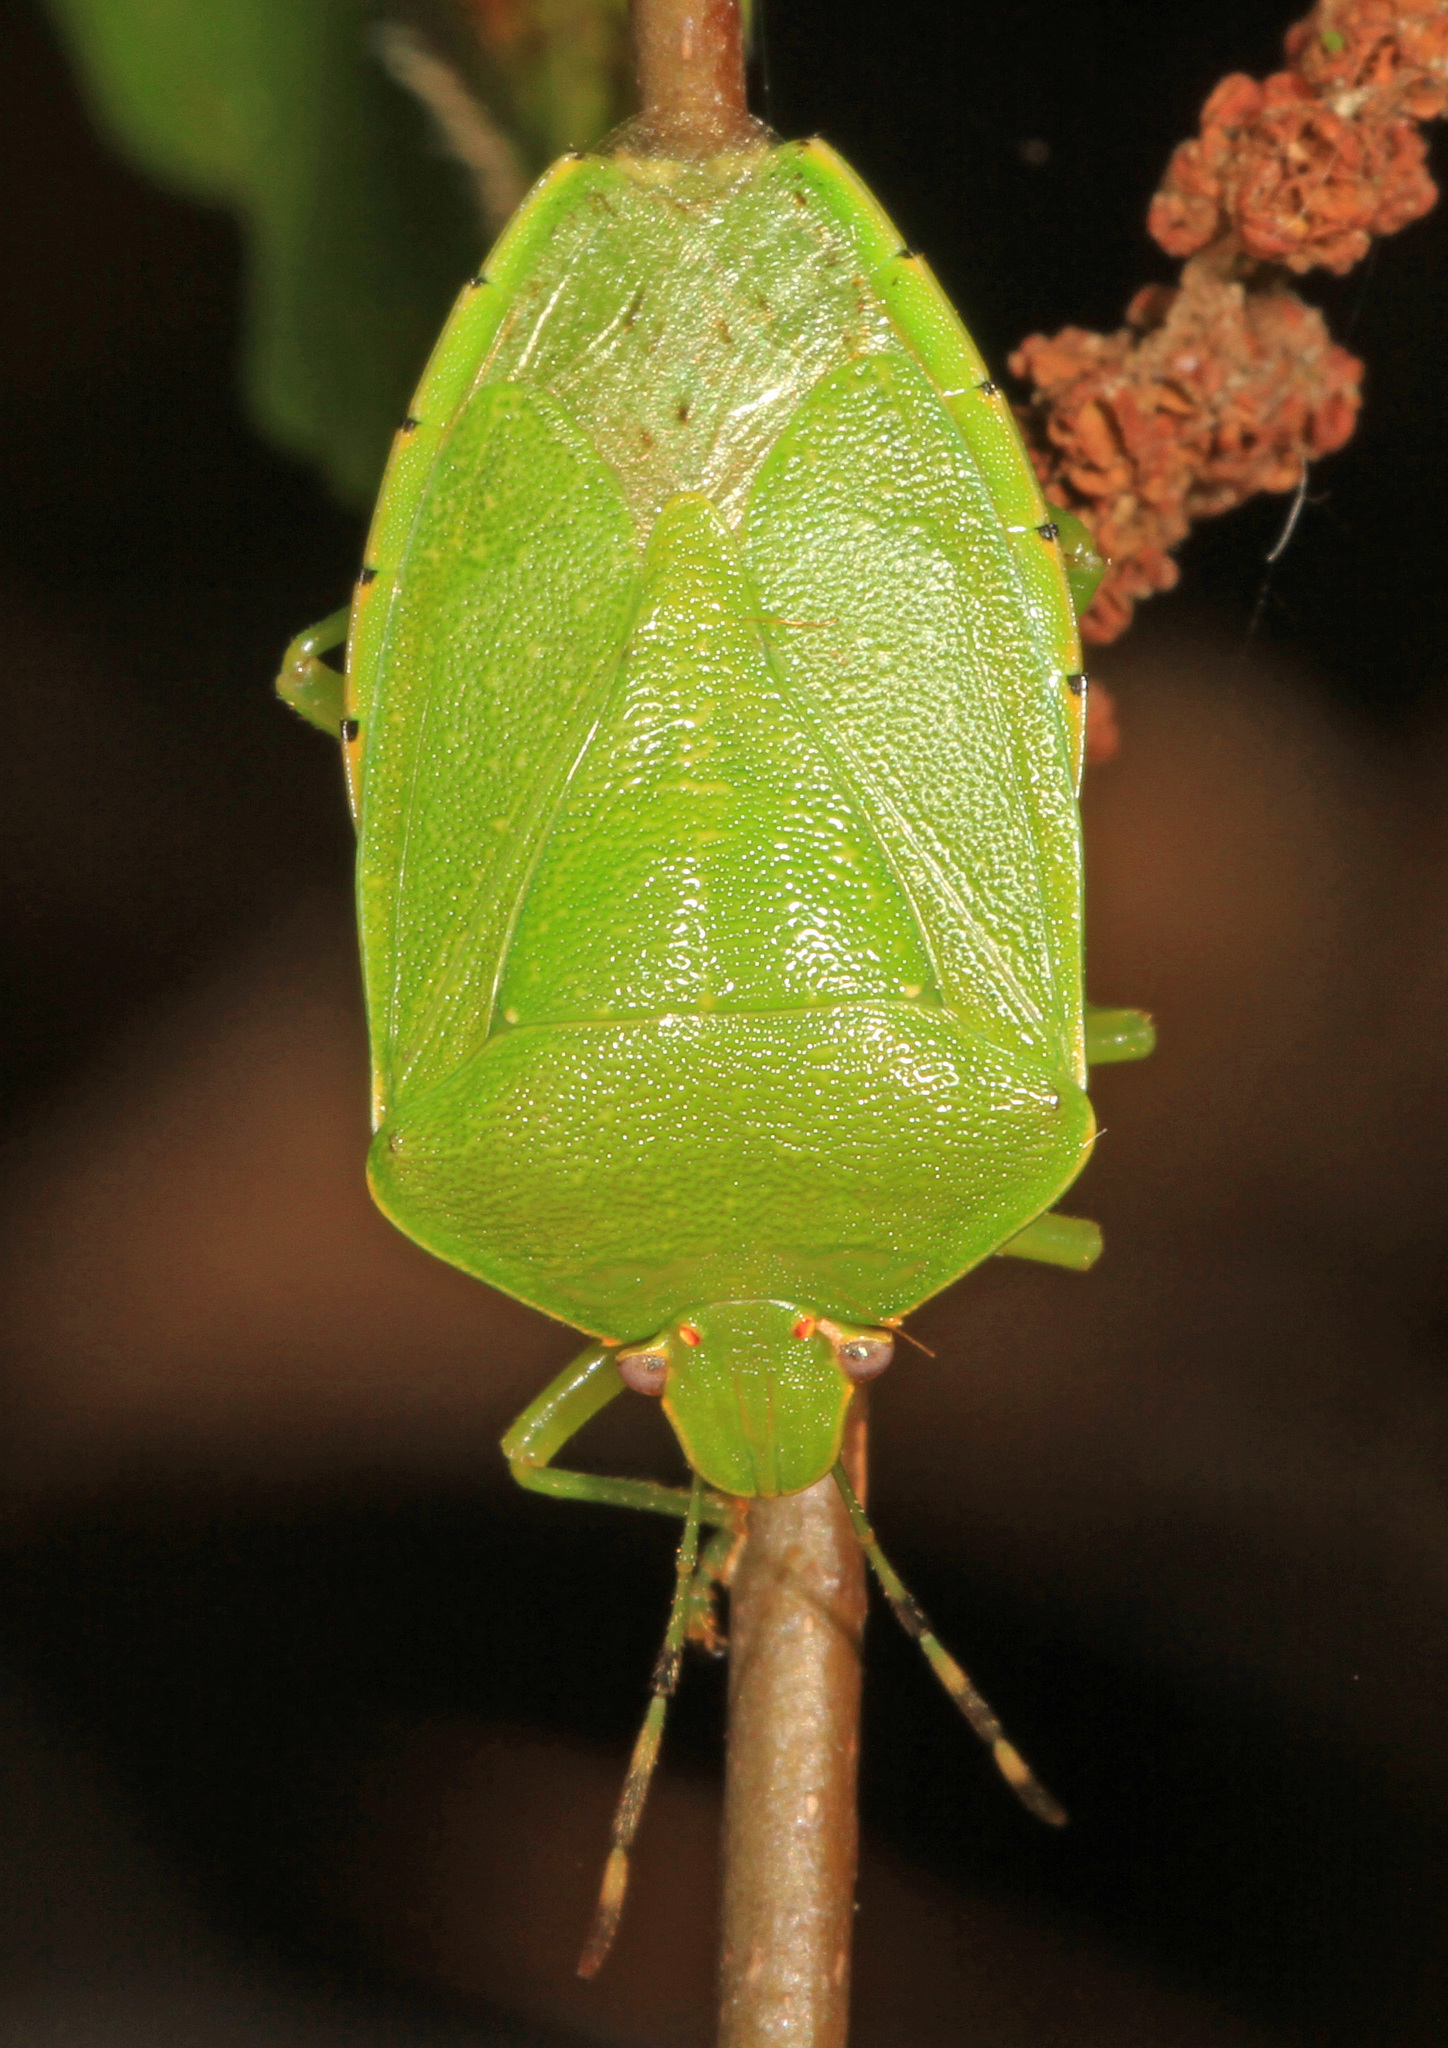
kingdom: Animalia
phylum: Arthropoda
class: Insecta
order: Hemiptera
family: Pentatomidae
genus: Chinavia
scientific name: Chinavia hilaris
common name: Green stink bug
